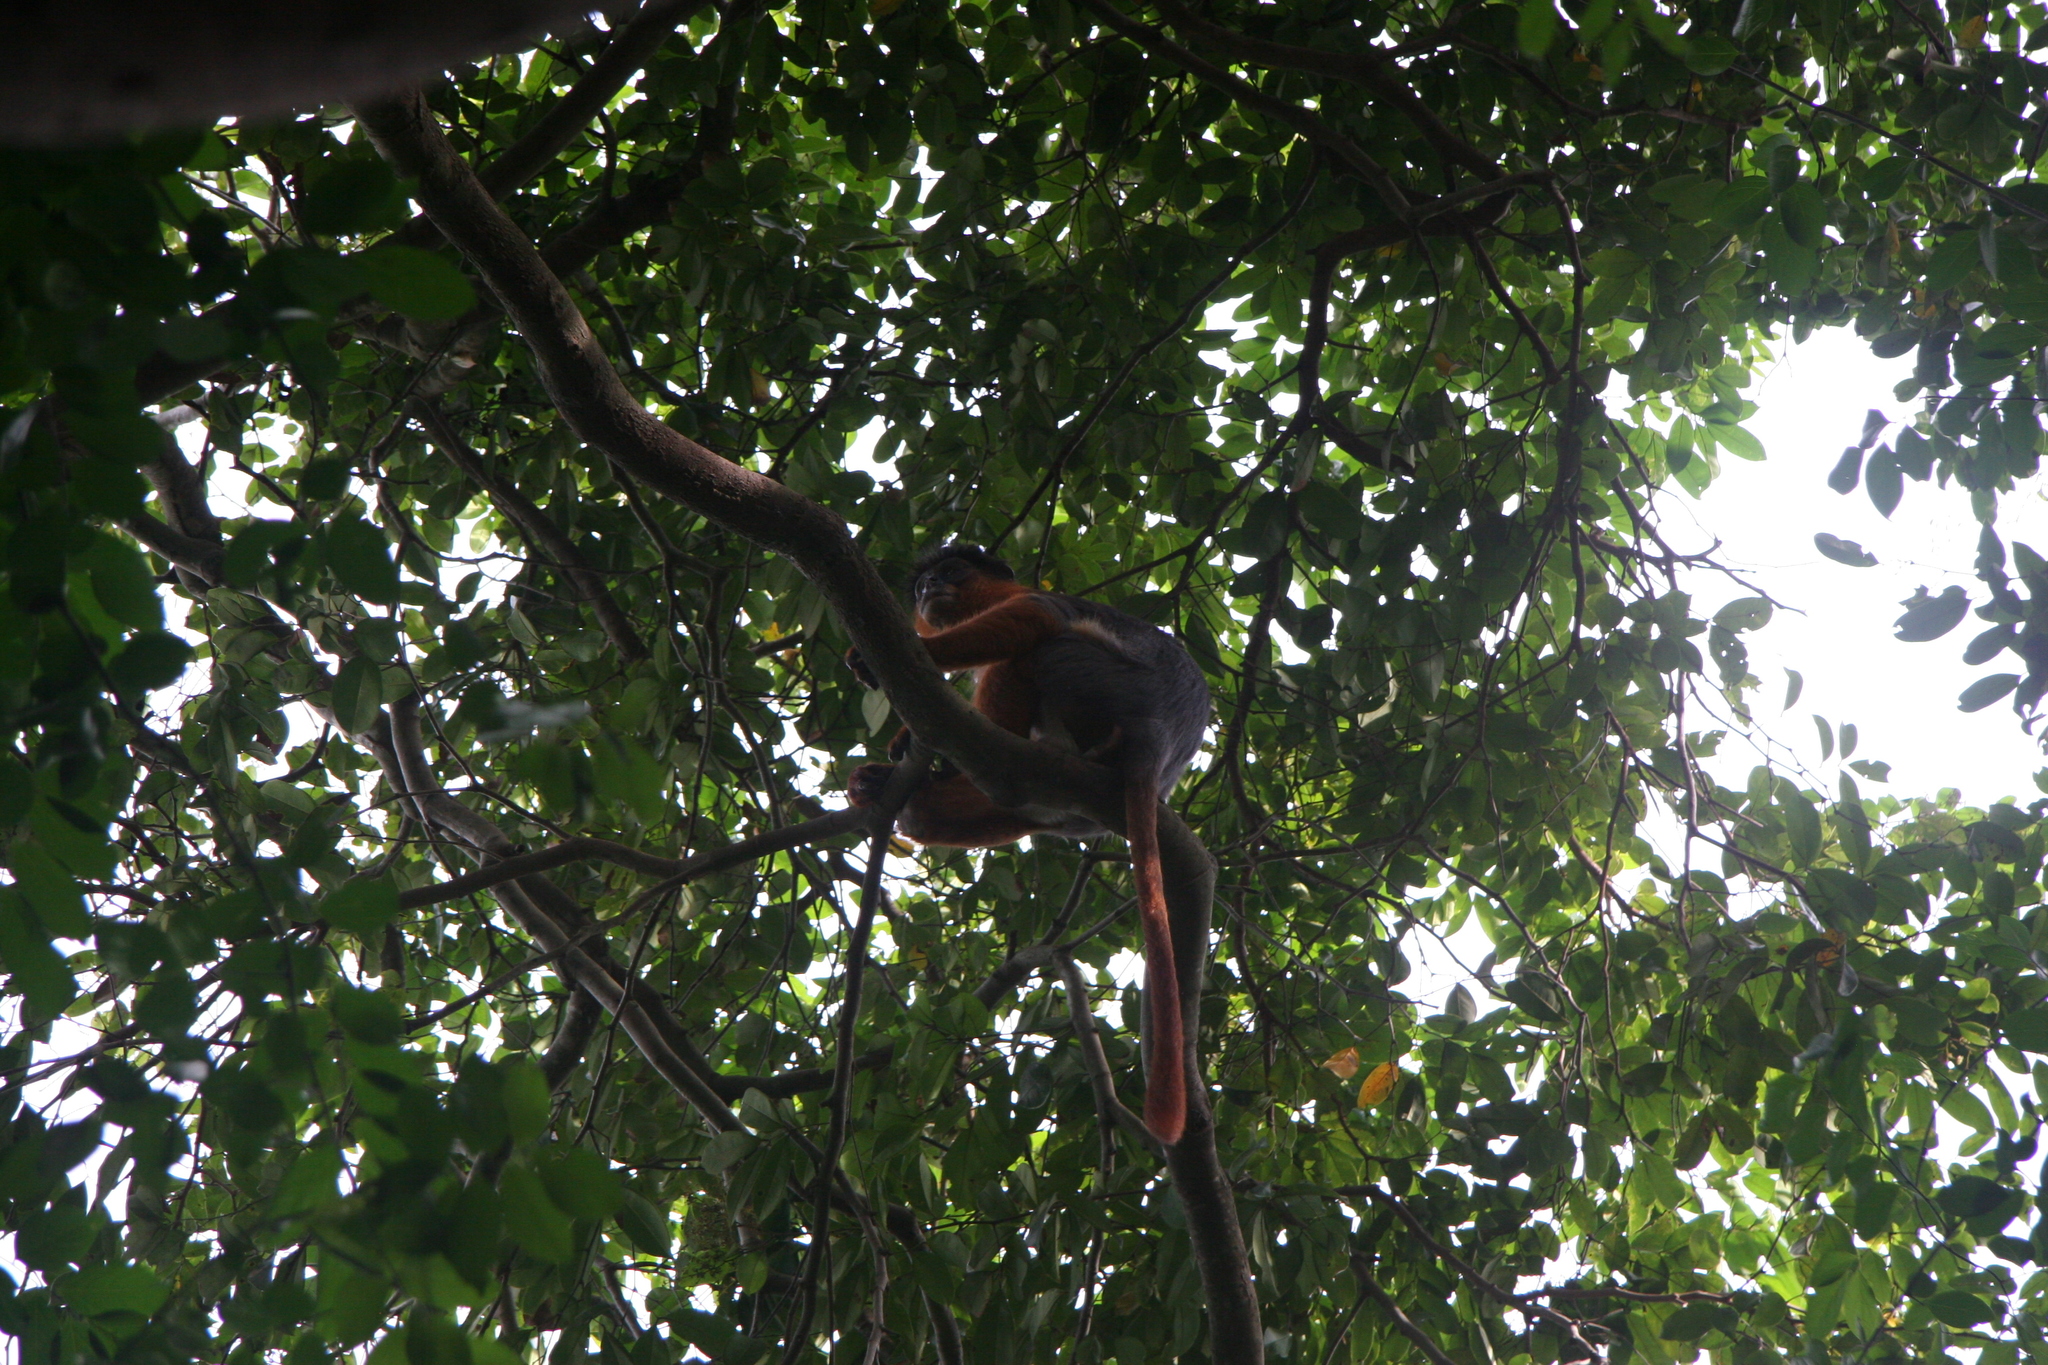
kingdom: Animalia
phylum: Chordata
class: Mammalia
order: Primates
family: Cercopithecidae
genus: Piliocolobus
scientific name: Piliocolobus badius
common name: Western red colobus
